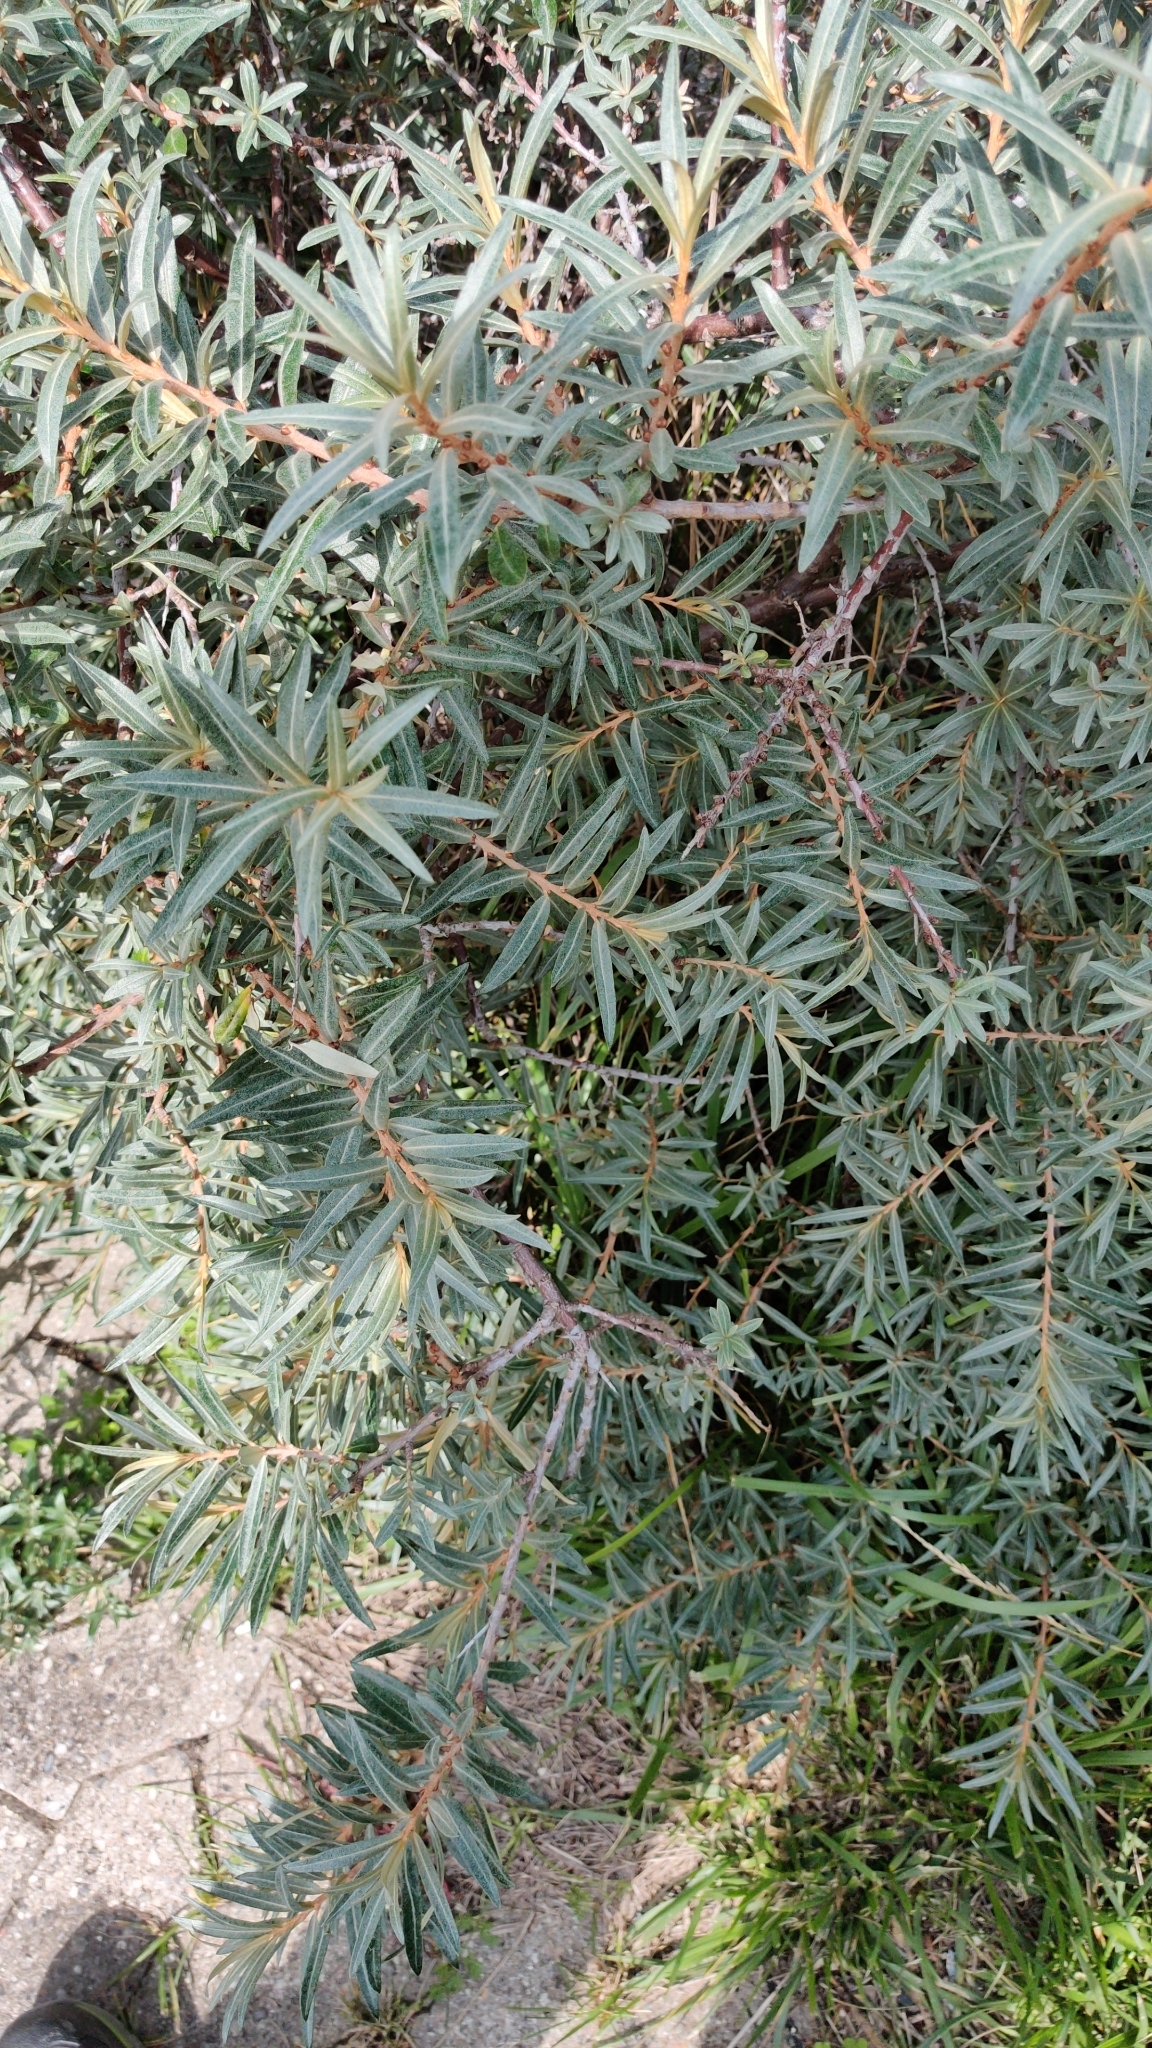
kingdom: Plantae
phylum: Tracheophyta
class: Magnoliopsida
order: Rosales
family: Elaeagnaceae
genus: Hippophae
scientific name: Hippophae rhamnoides
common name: Sea-buckthorn
